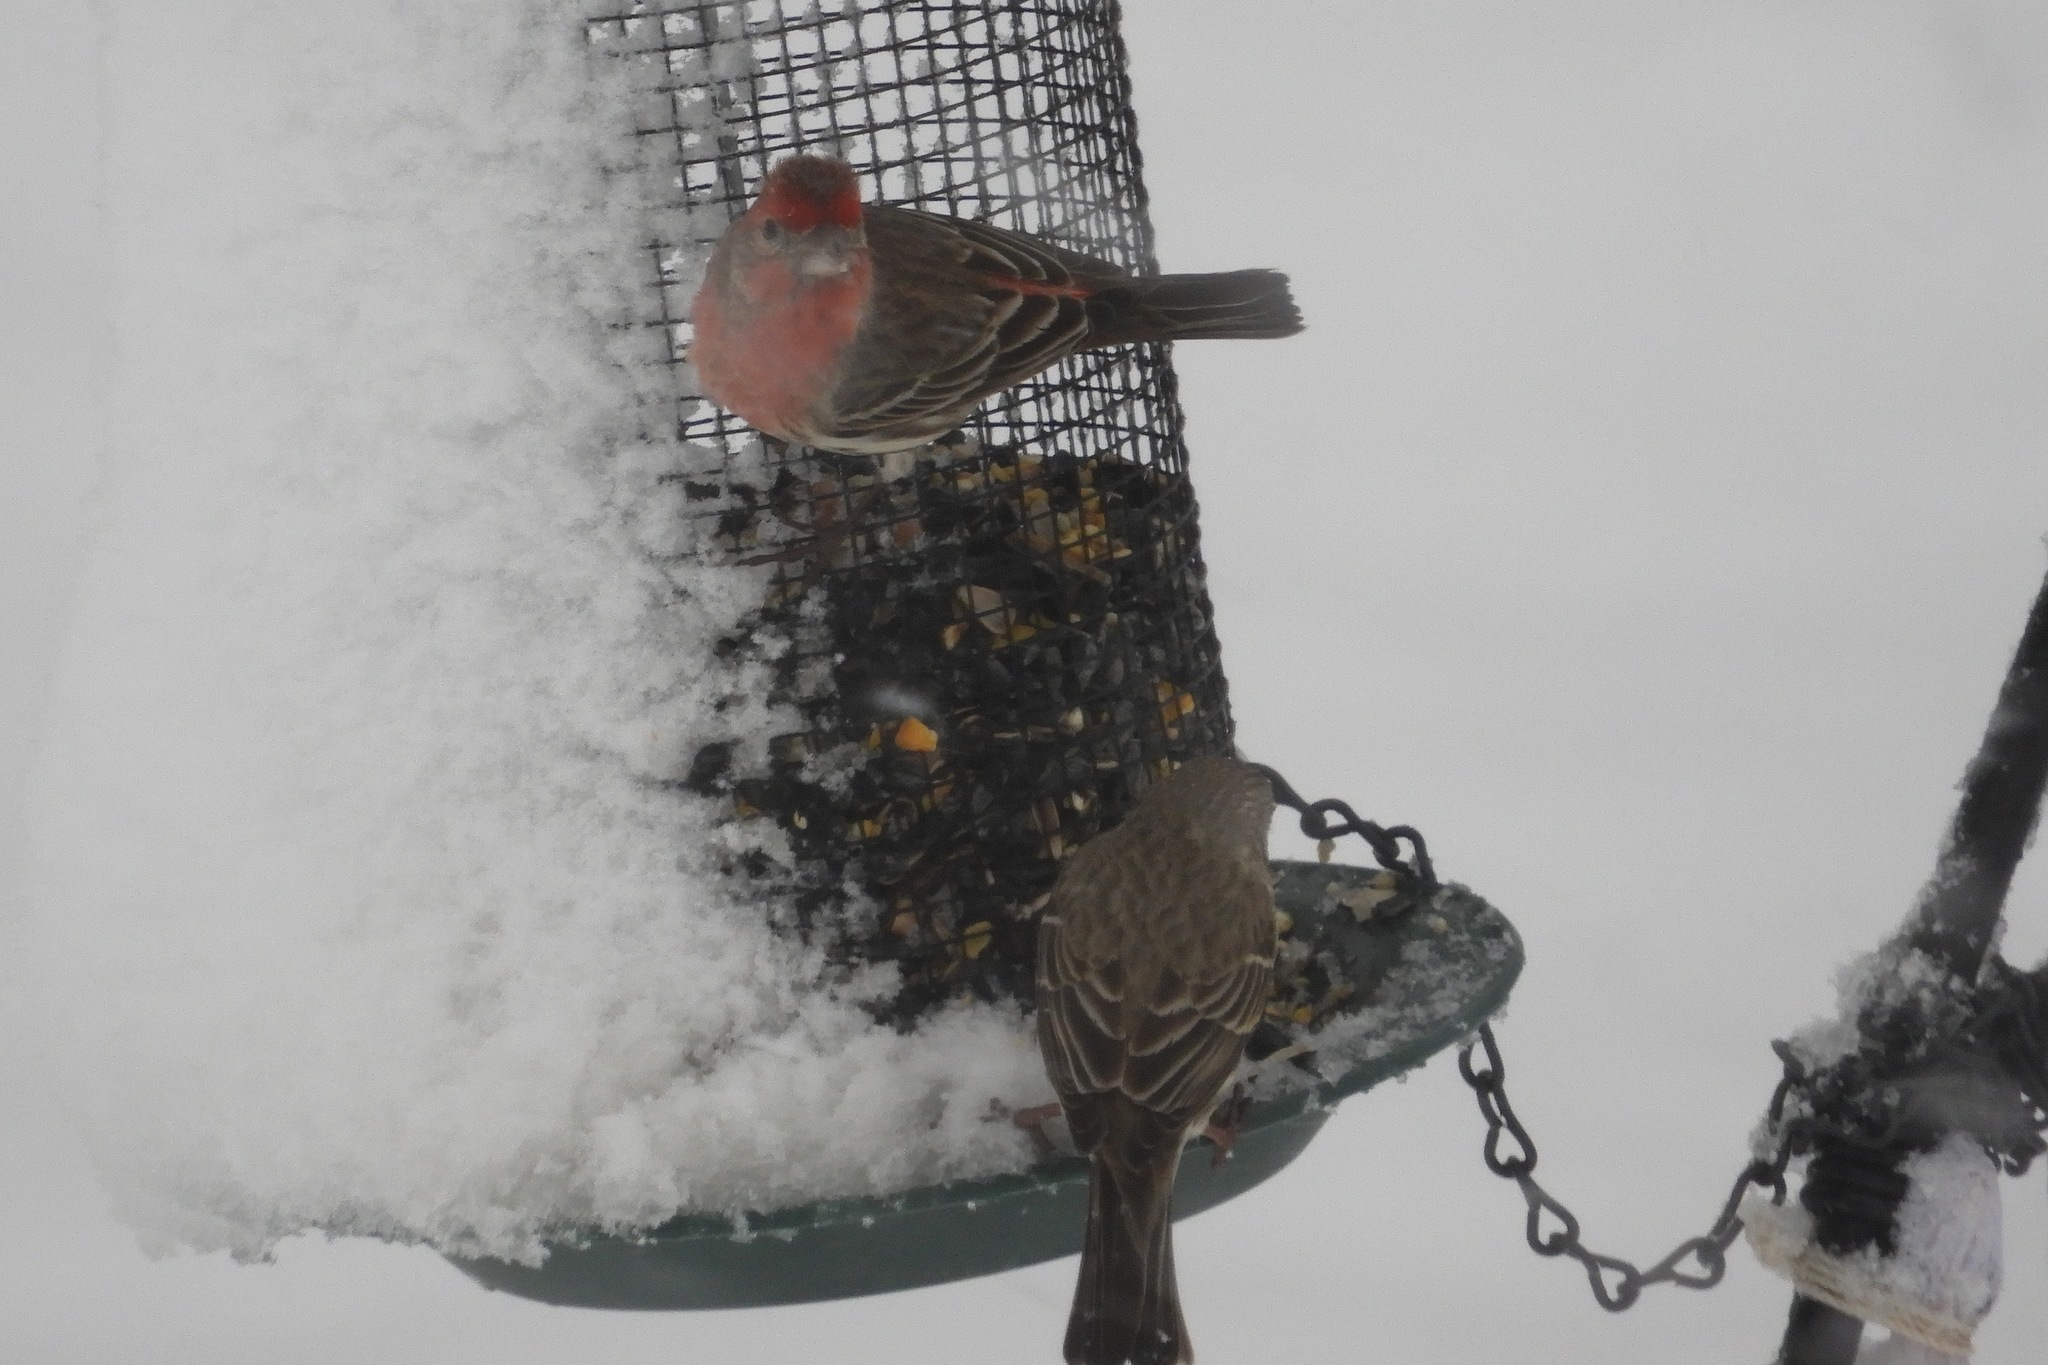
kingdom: Animalia
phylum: Chordata
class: Aves
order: Passeriformes
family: Fringillidae
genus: Haemorhous
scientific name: Haemorhous mexicanus
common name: House finch
